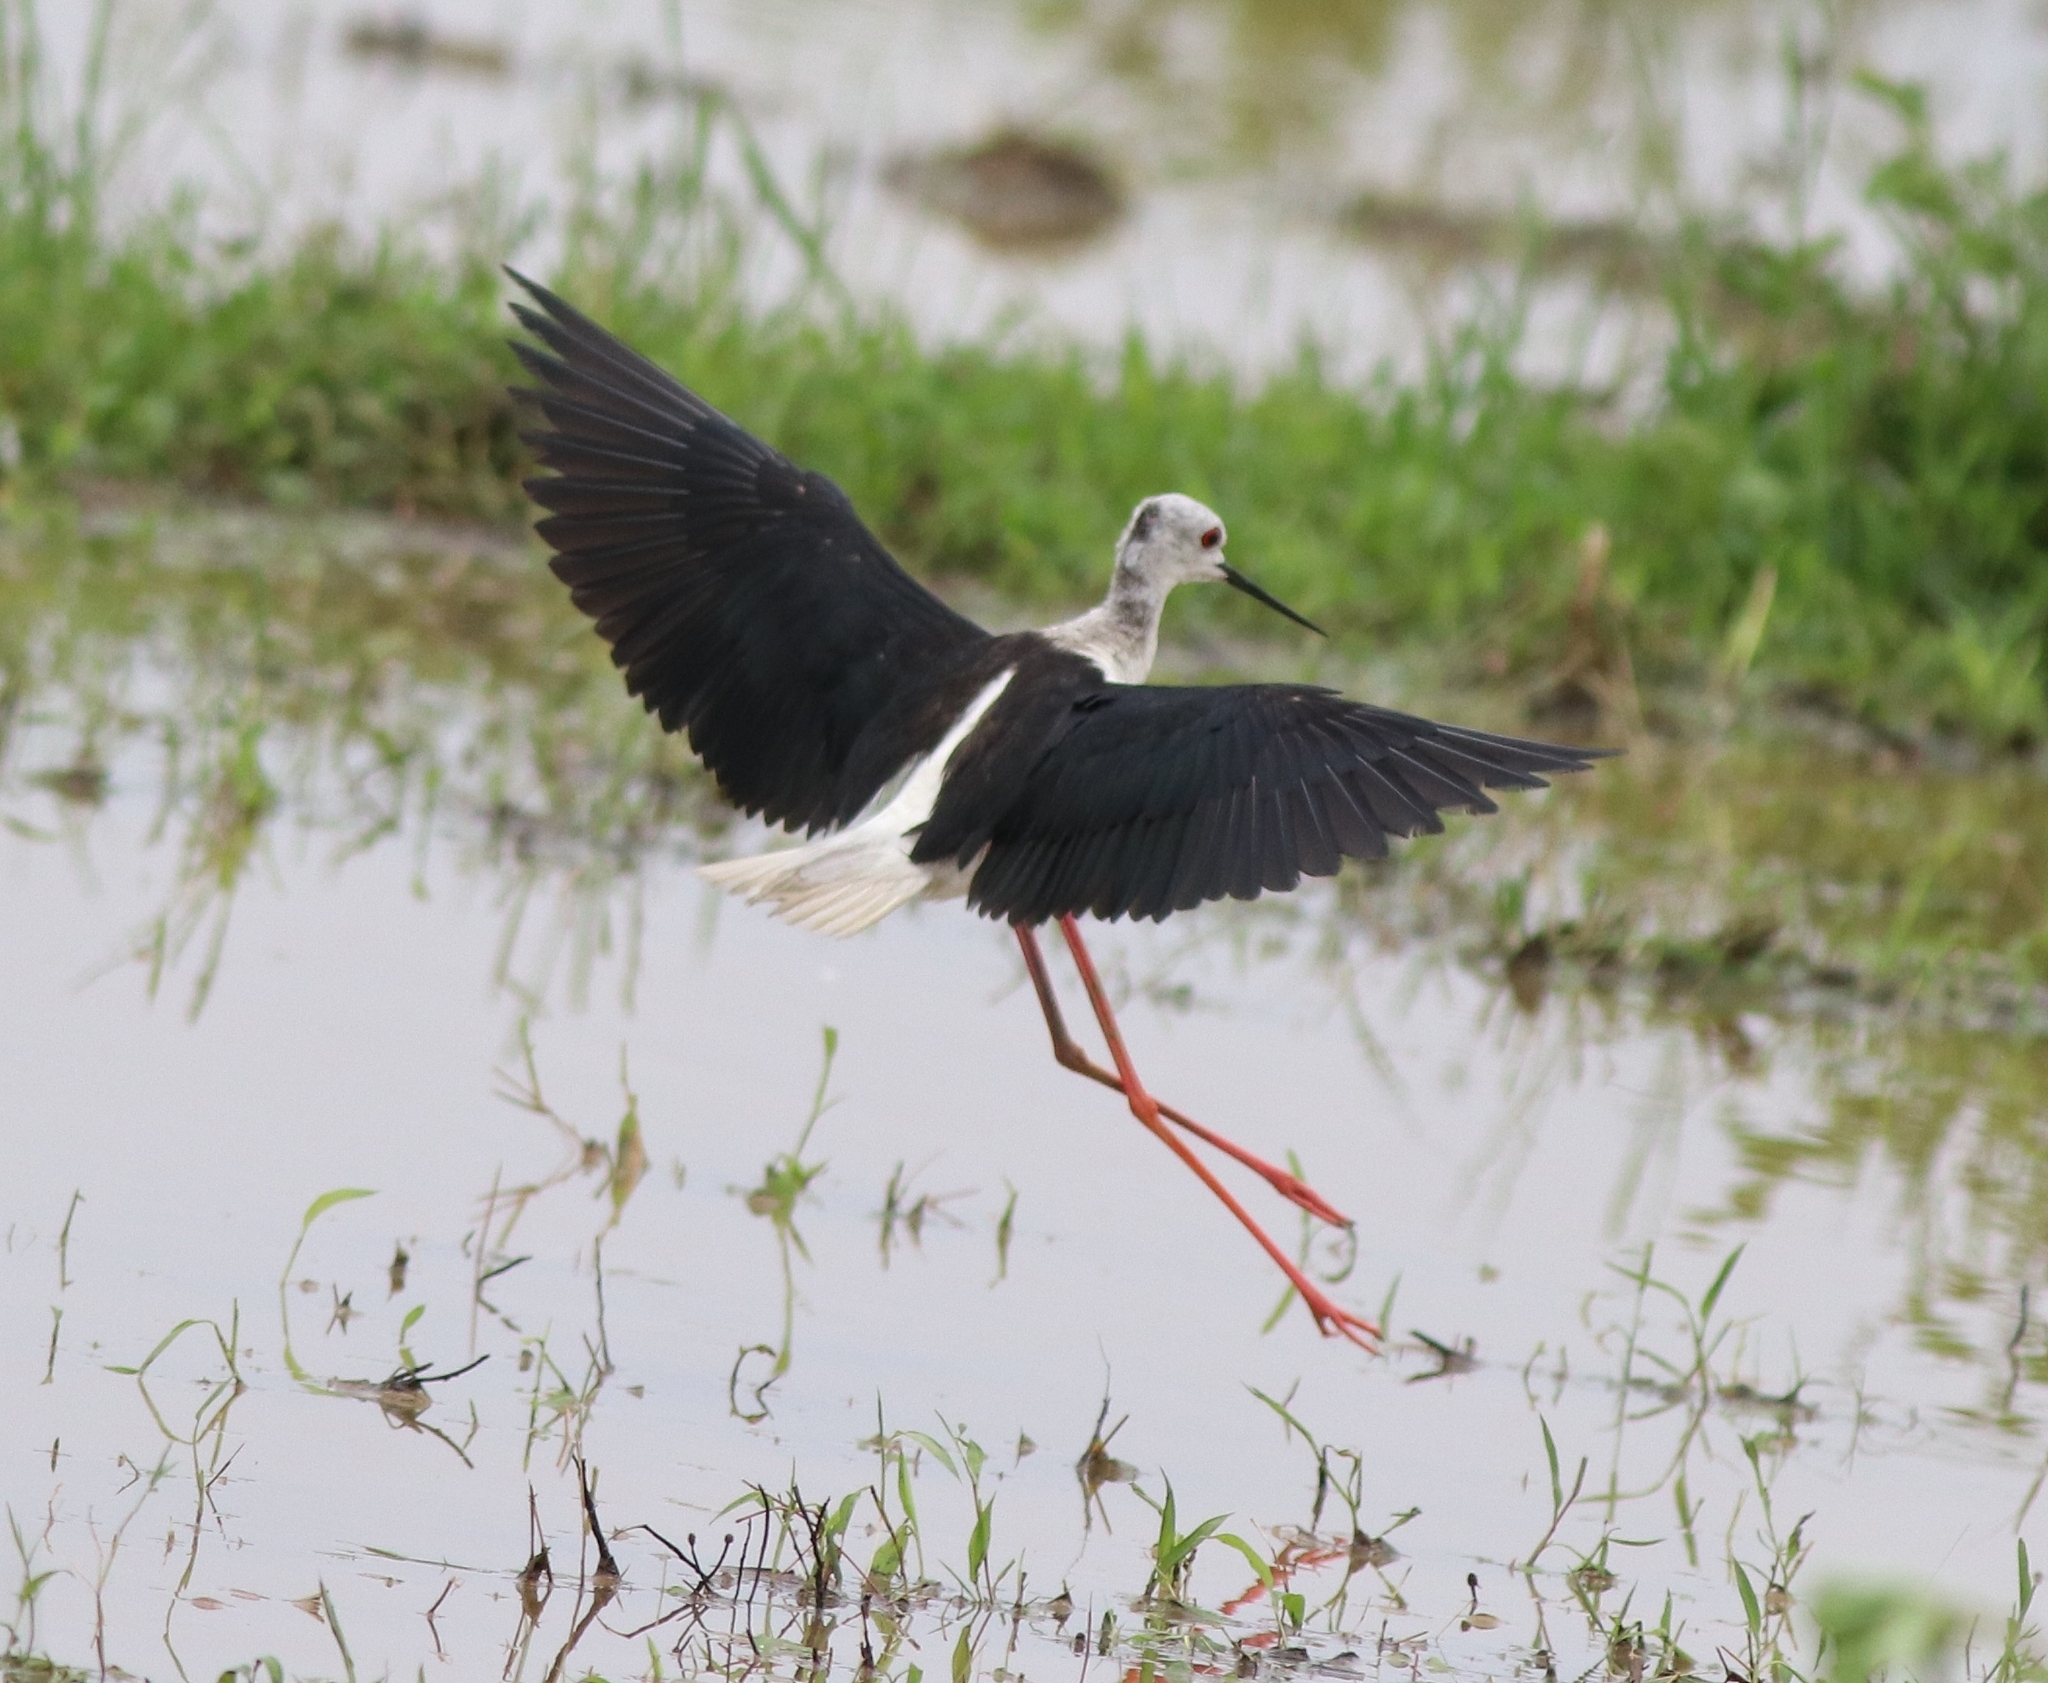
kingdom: Animalia
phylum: Chordata
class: Aves
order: Charadriiformes
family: Recurvirostridae
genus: Himantopus
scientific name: Himantopus himantopus
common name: Black-winged stilt
